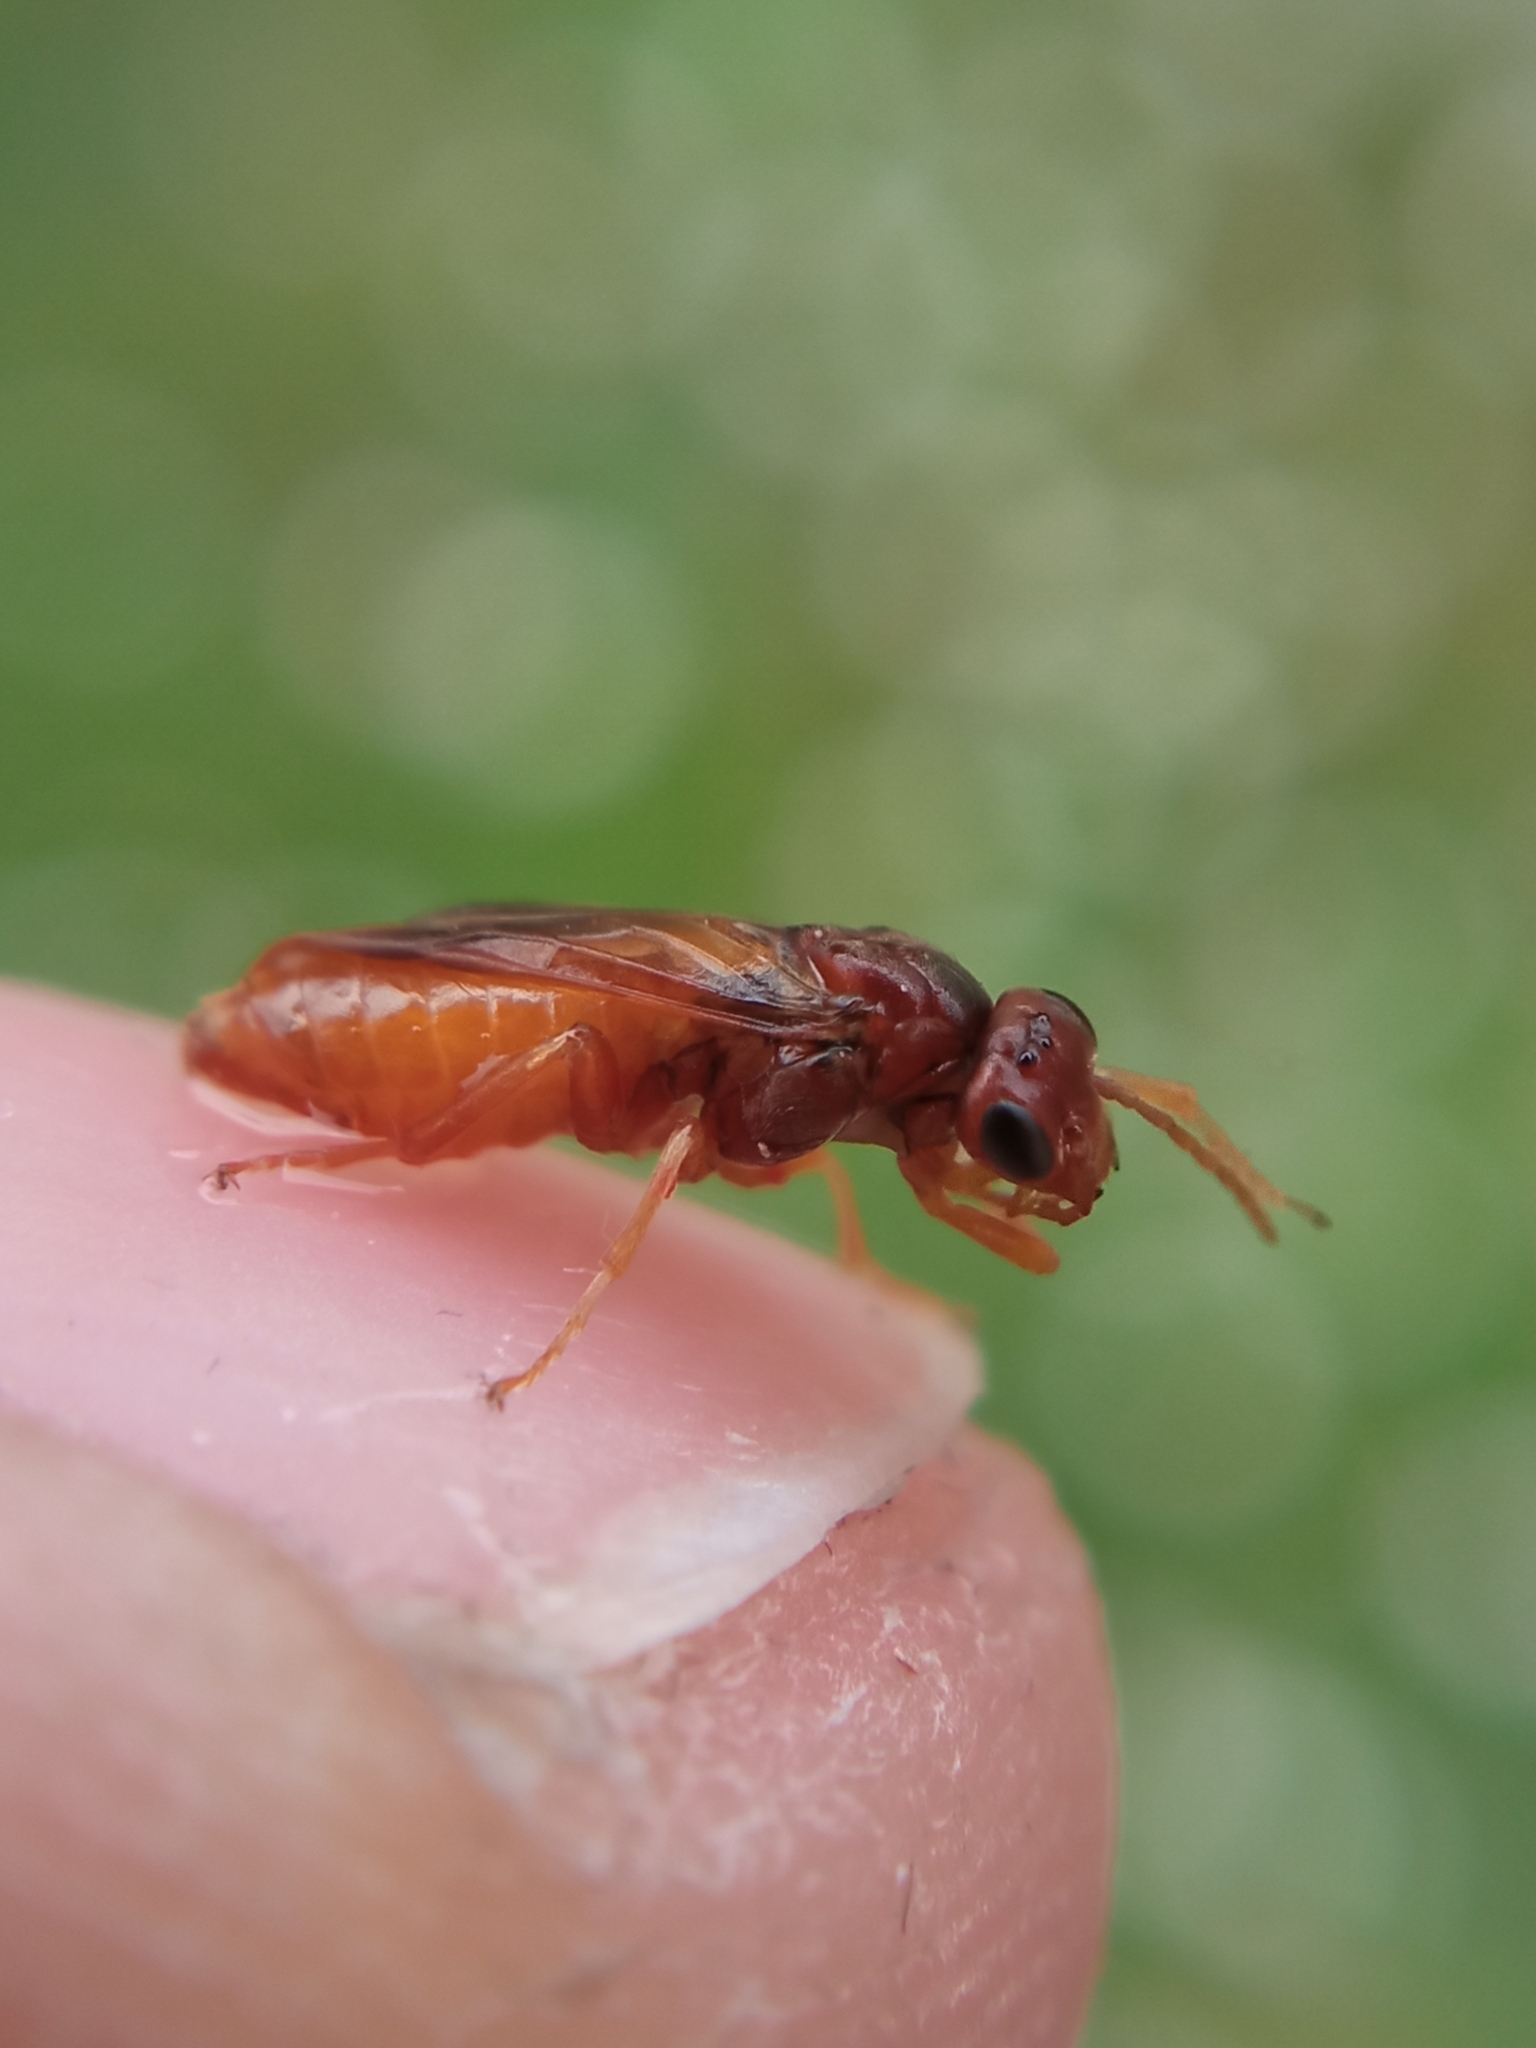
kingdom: Animalia
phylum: Arthropoda
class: Insecta
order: Hymenoptera
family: Tenthredinidae
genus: Hoplocampa
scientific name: Hoplocampa flava
